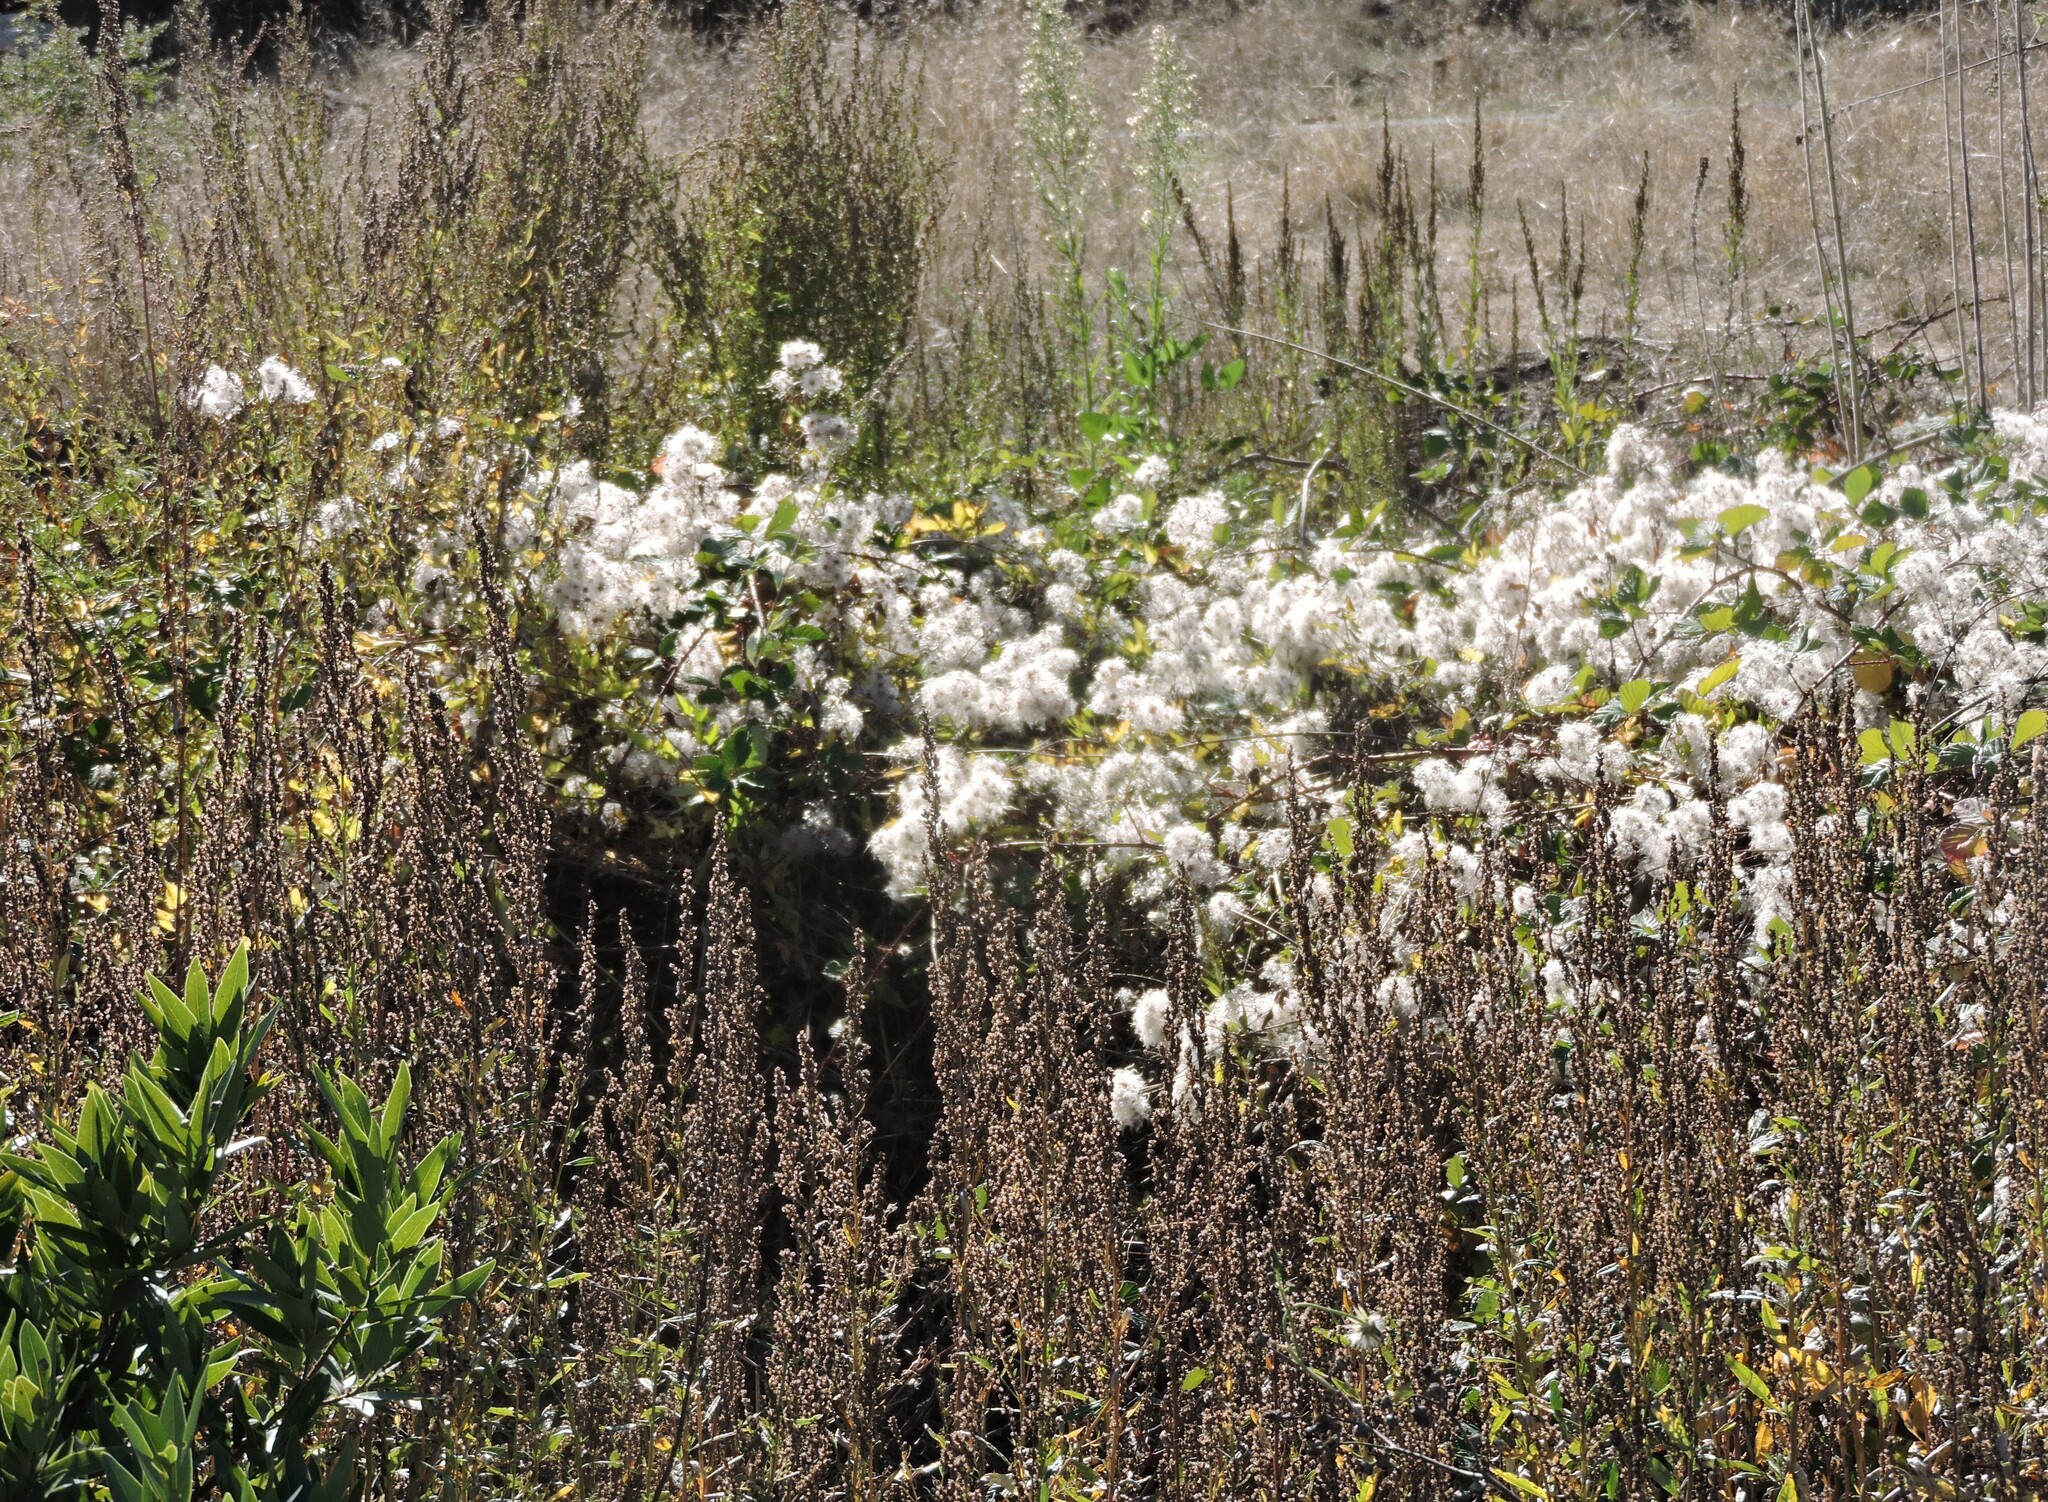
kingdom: Plantae
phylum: Tracheophyta
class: Magnoliopsida
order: Ranunculales
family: Ranunculaceae
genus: Clematis
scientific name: Clematis lasiantha
